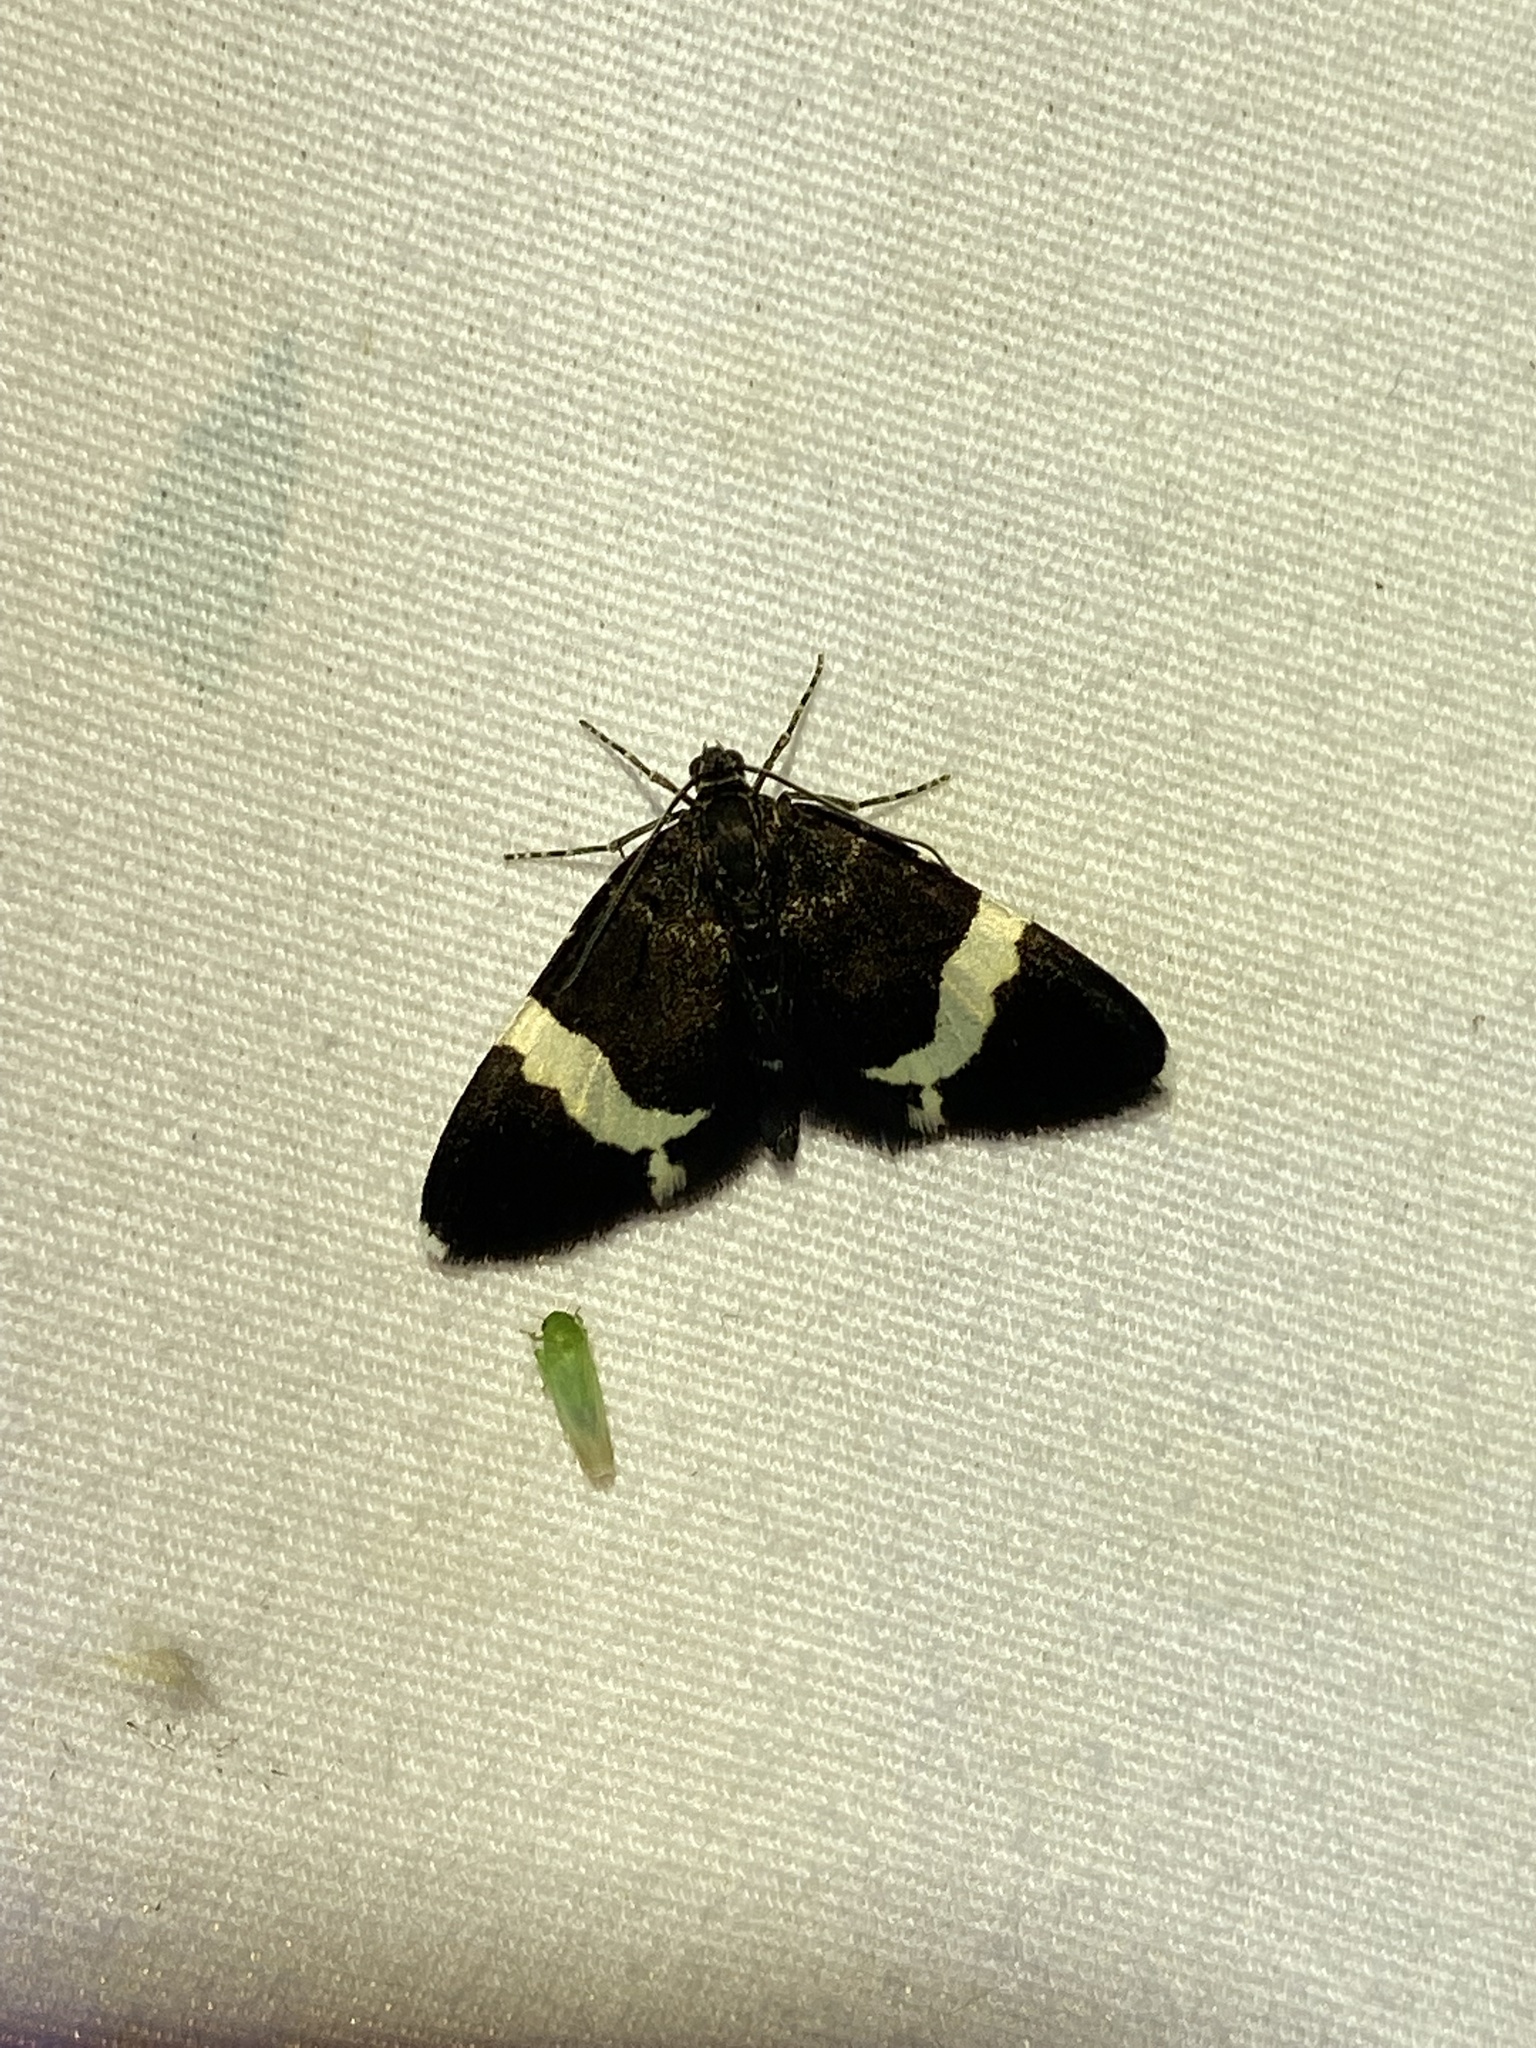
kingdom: Animalia
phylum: Arthropoda
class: Insecta
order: Lepidoptera
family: Geometridae
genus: Trichodezia
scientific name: Trichodezia albovittata
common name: White striped black
